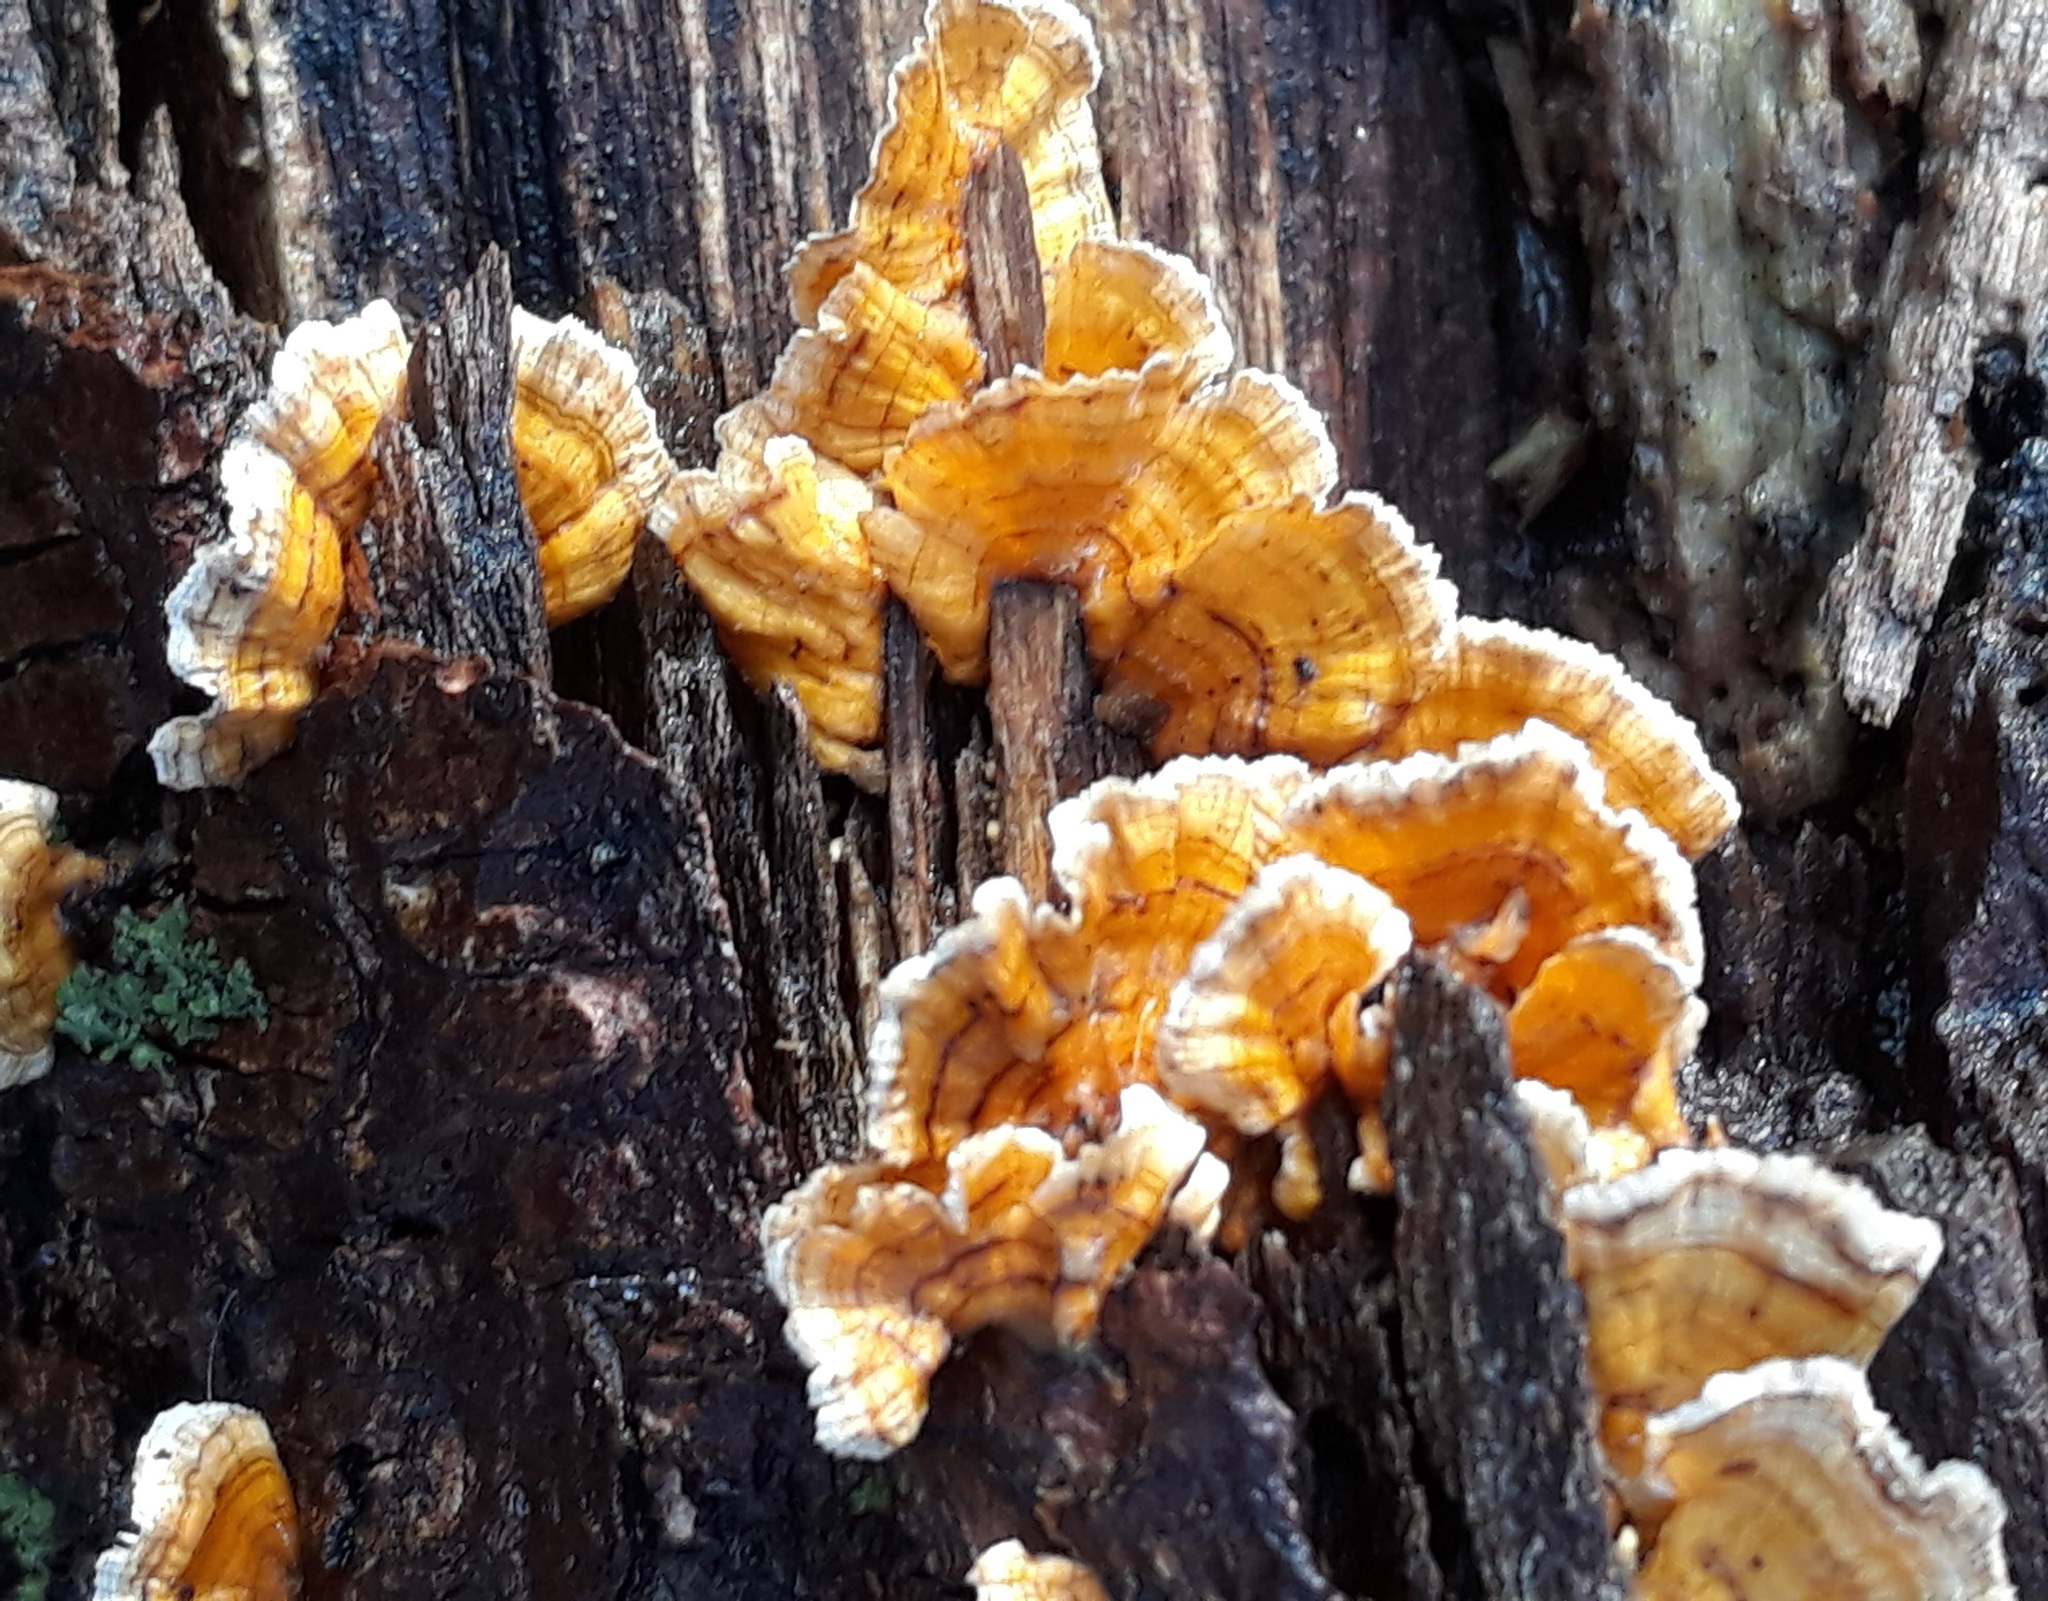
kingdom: Fungi
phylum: Basidiomycota
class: Agaricomycetes
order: Russulales
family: Stereaceae
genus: Stereum
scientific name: Stereum complicatum
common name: Crowded parchment
